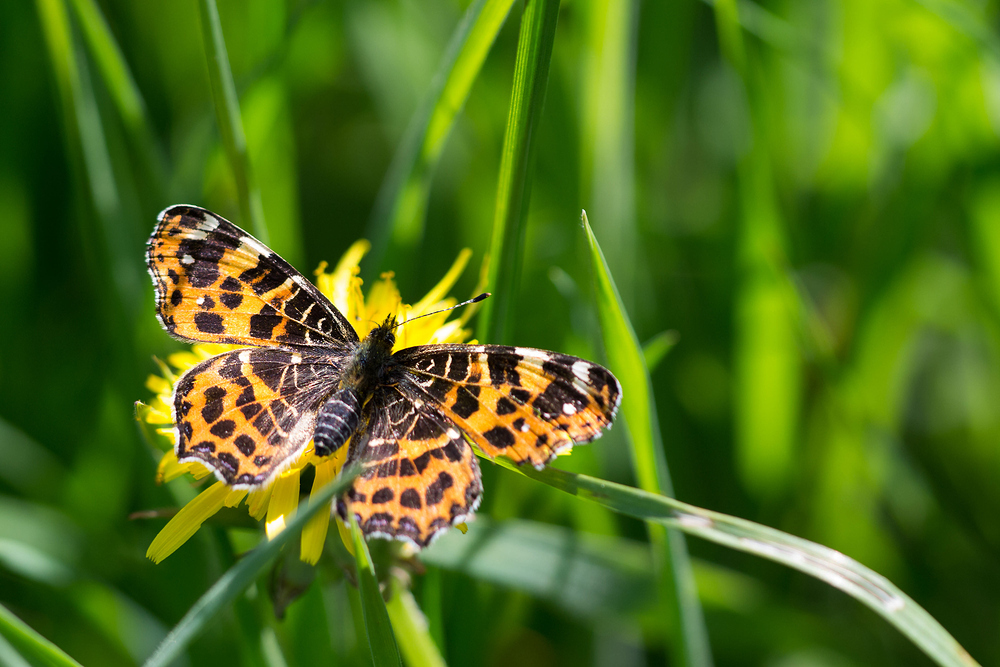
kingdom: Animalia
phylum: Arthropoda
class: Insecta
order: Lepidoptera
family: Nymphalidae
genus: Araschnia
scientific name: Araschnia levana
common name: Map butterfly
